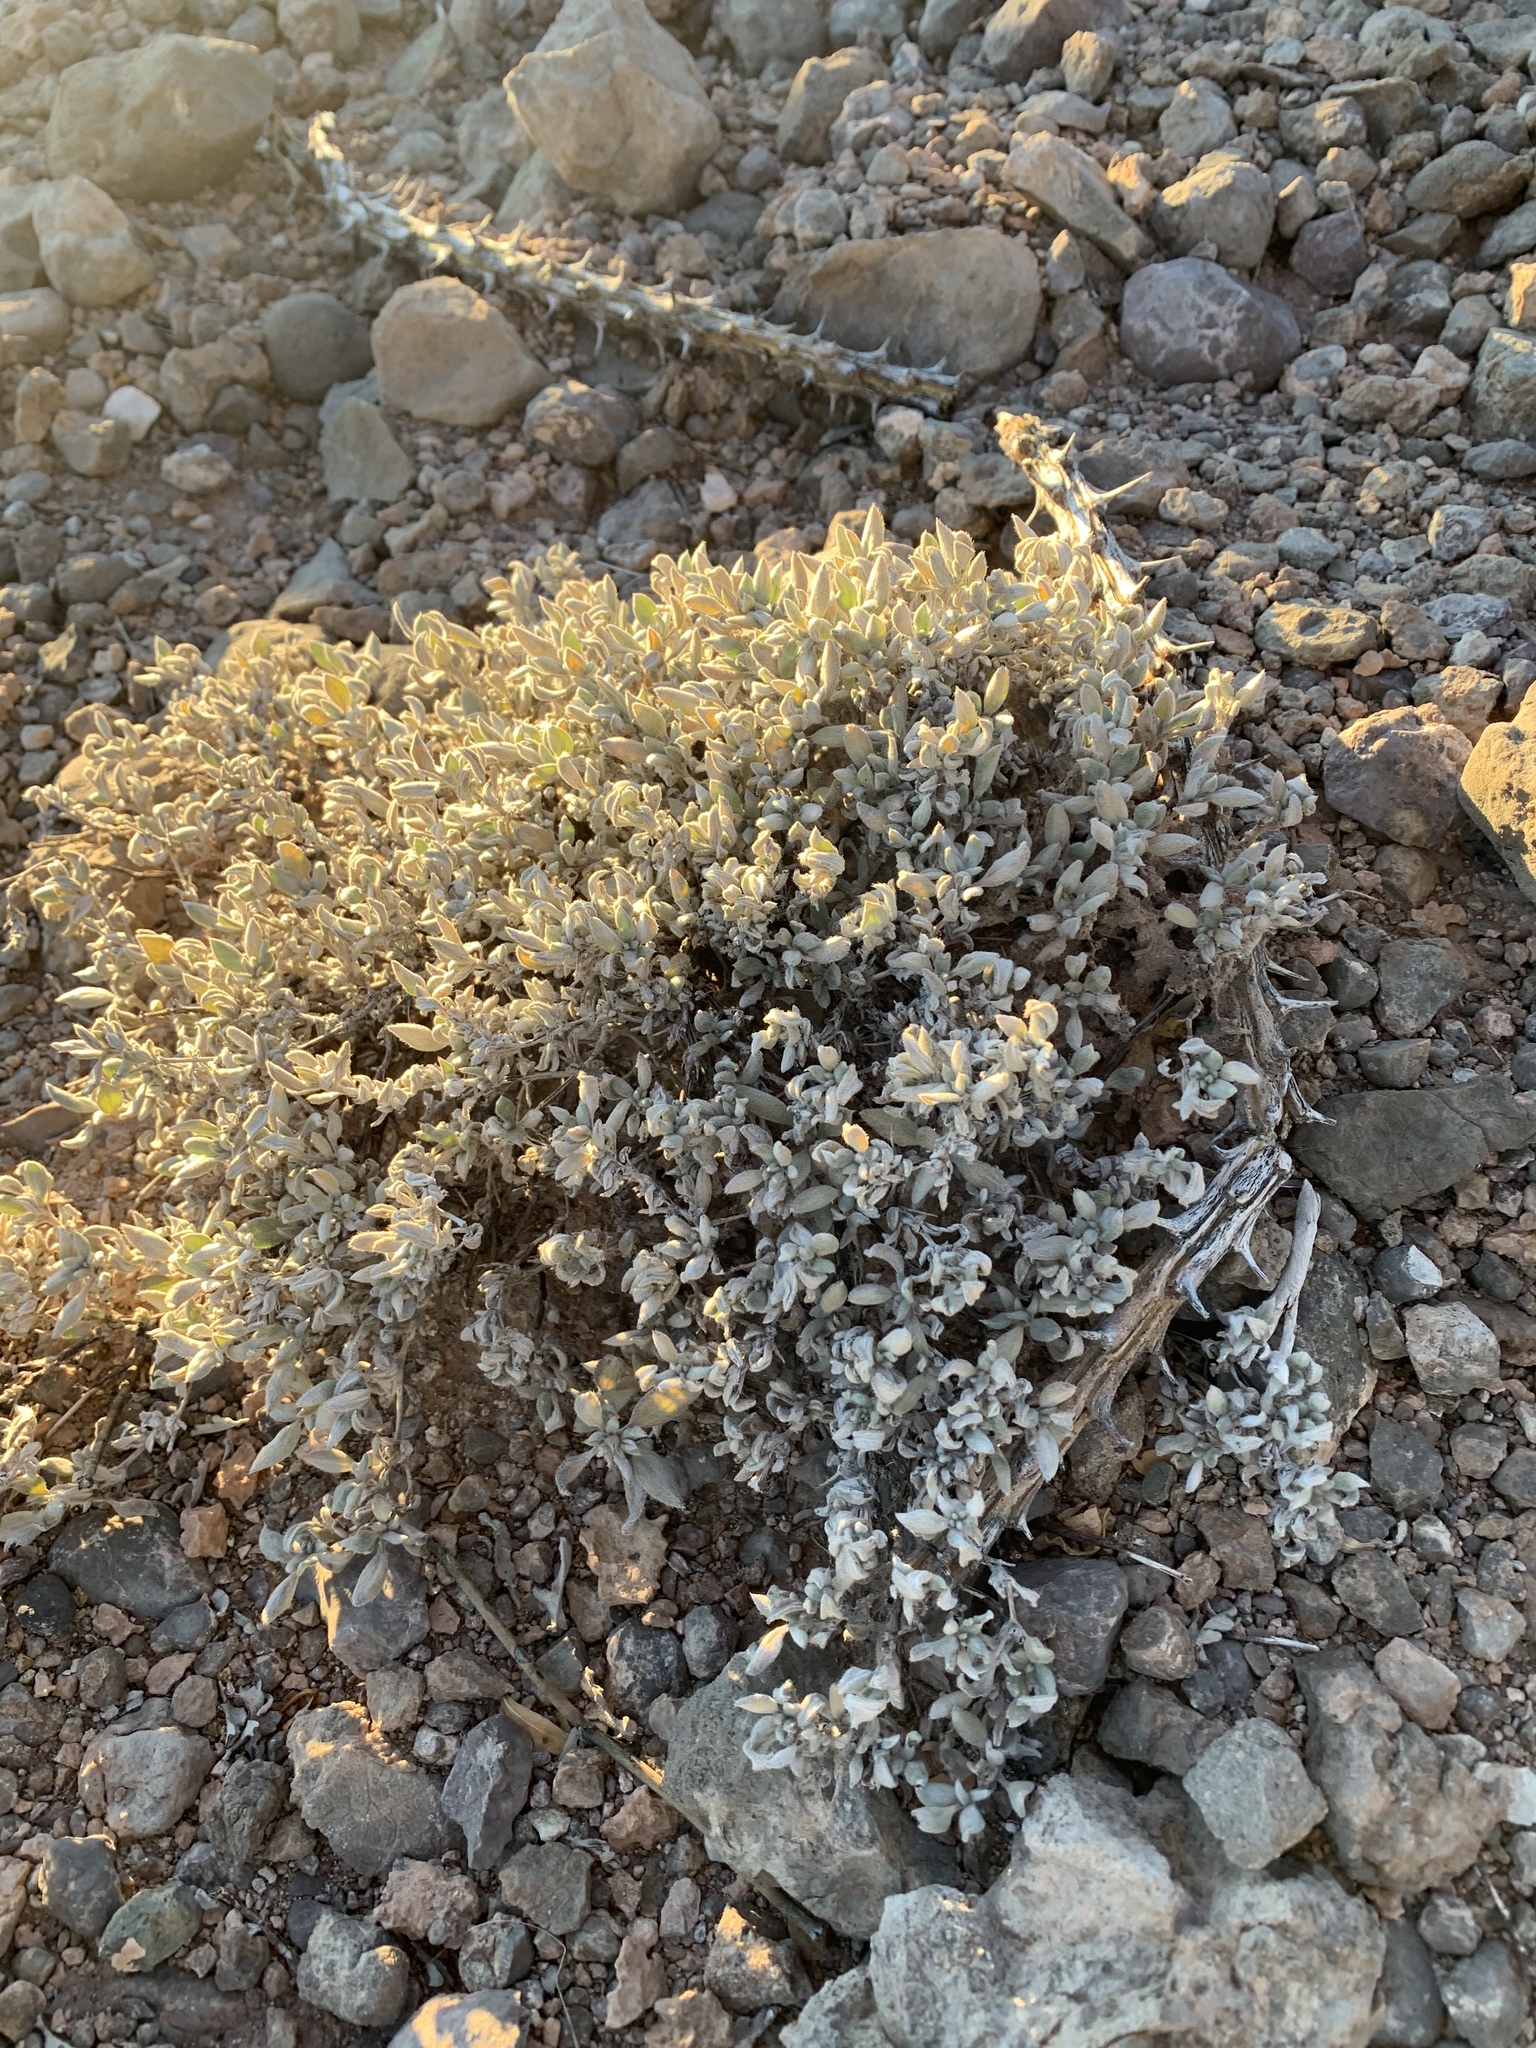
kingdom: Plantae
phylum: Tracheophyta
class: Magnoliopsida
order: Boraginales
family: Ehretiaceae
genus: Tiquilia
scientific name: Tiquilia canescens
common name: Hairy tiquilia
